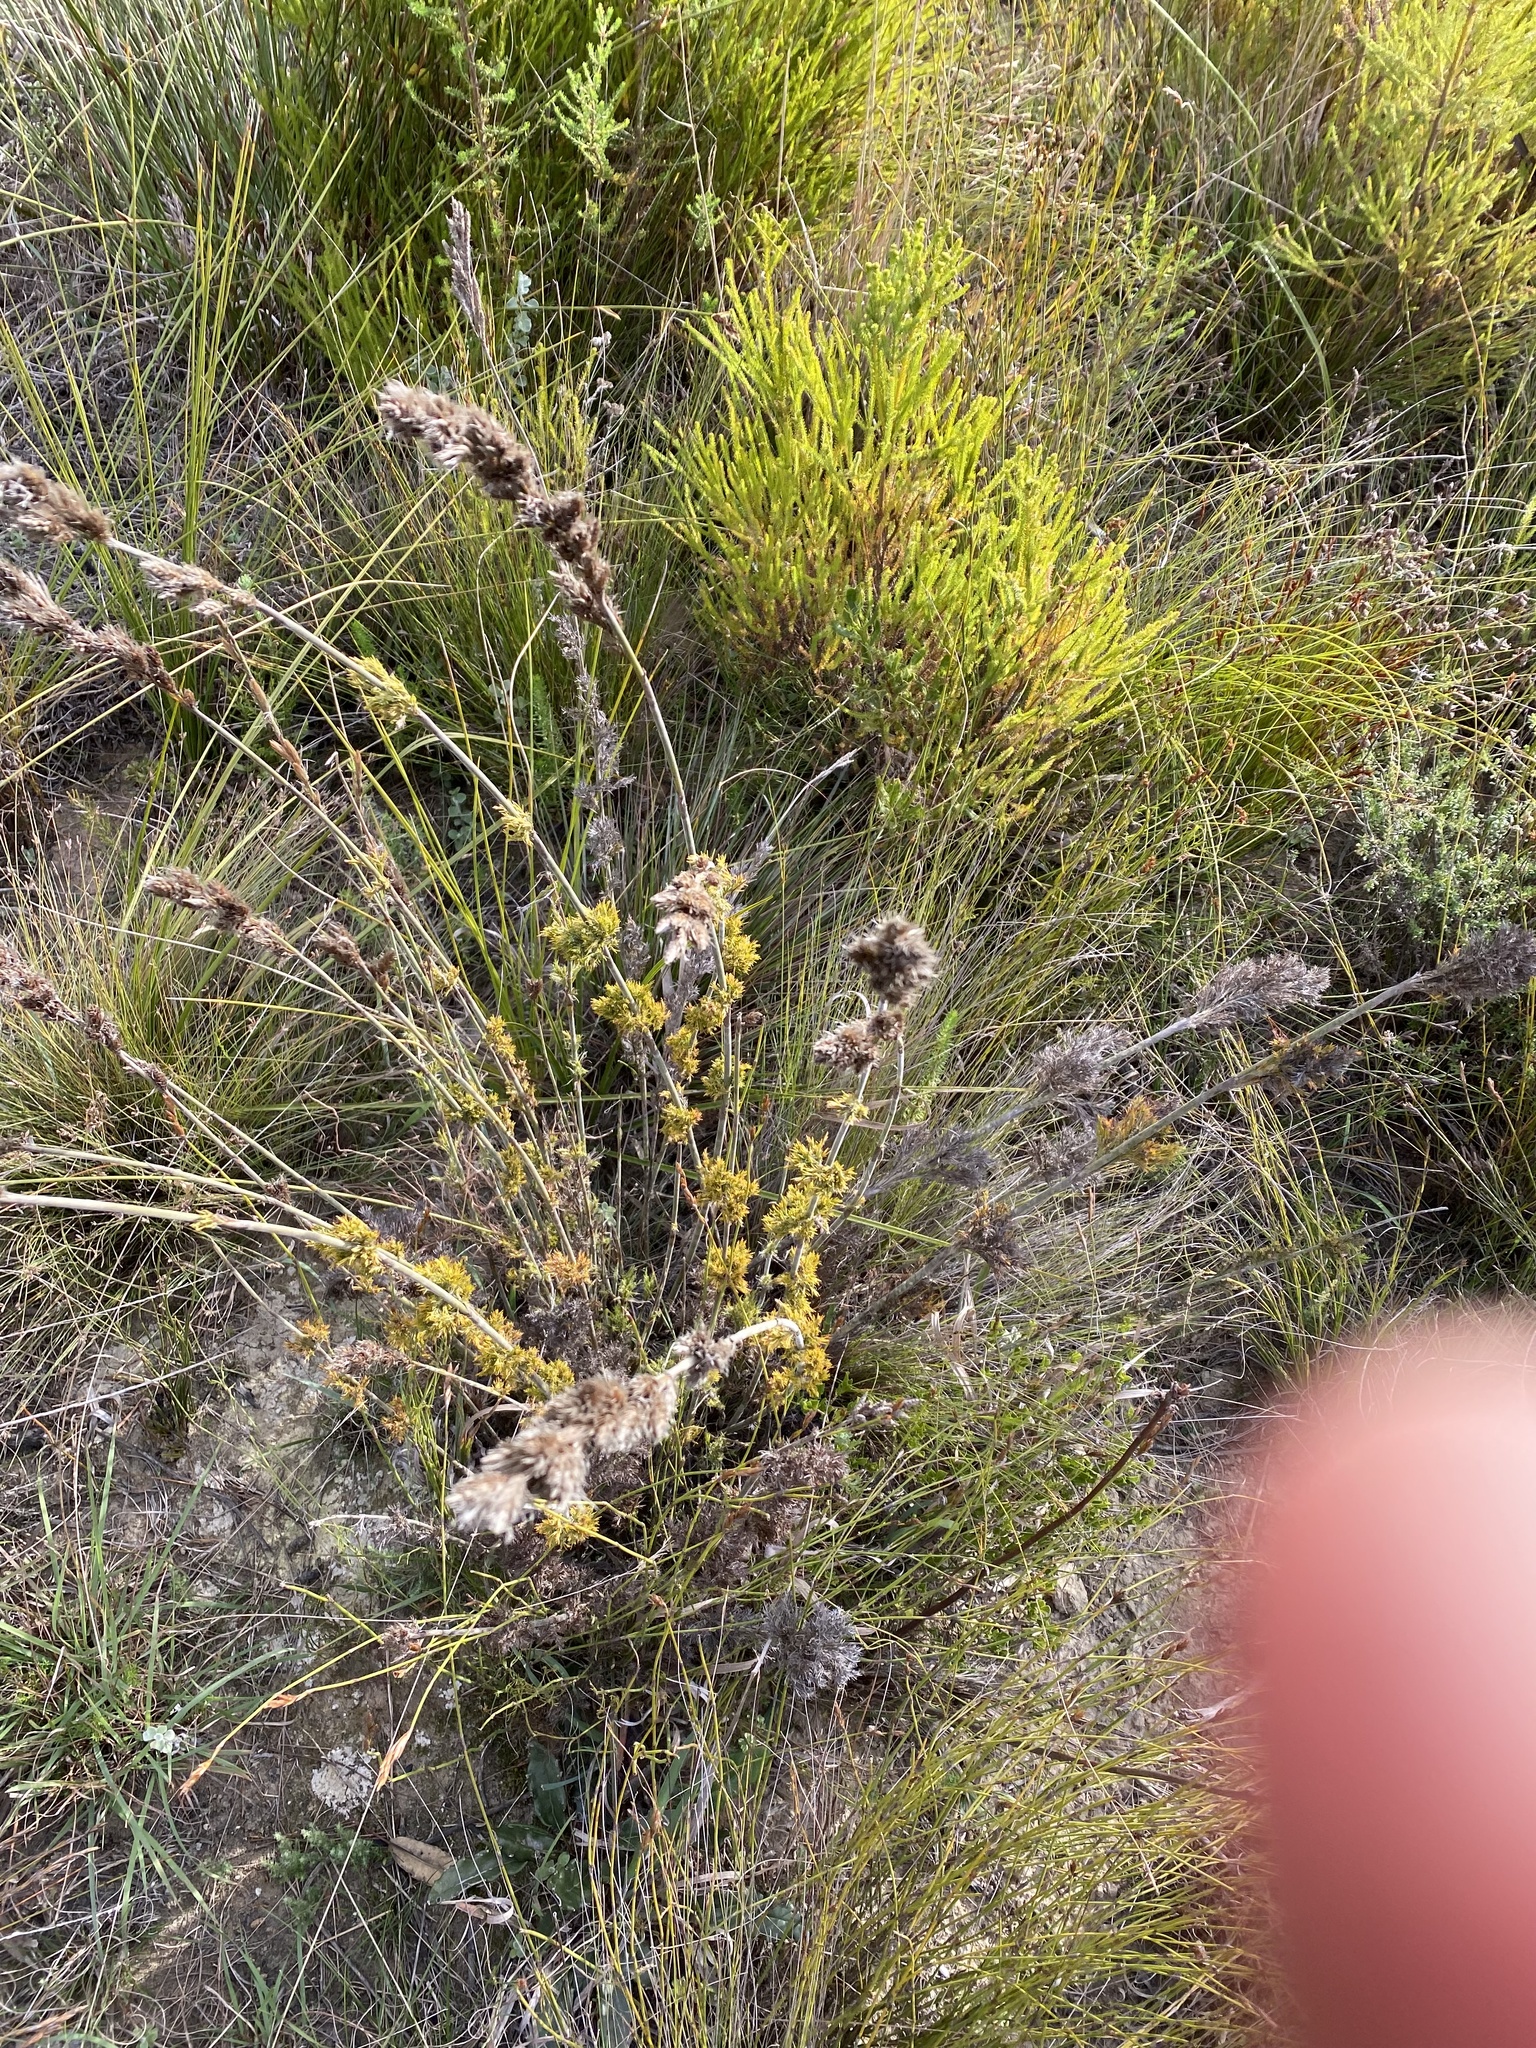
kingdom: Plantae
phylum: Tracheophyta
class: Liliopsida
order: Poales
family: Restionaceae
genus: Thamnochortus
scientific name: Thamnochortus cinereus
